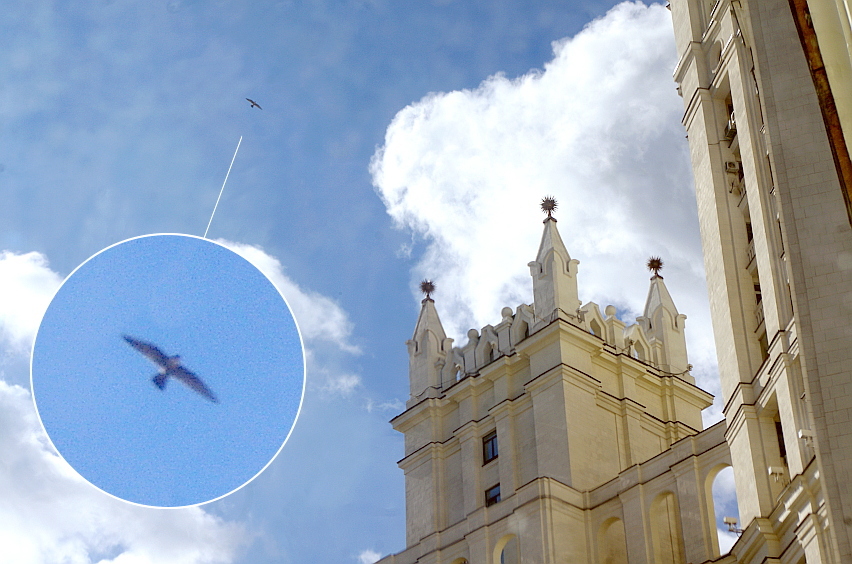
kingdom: Animalia
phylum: Chordata
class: Aves
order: Falconiformes
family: Falconidae
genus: Falco
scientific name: Falco peregrinus
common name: Peregrine falcon
